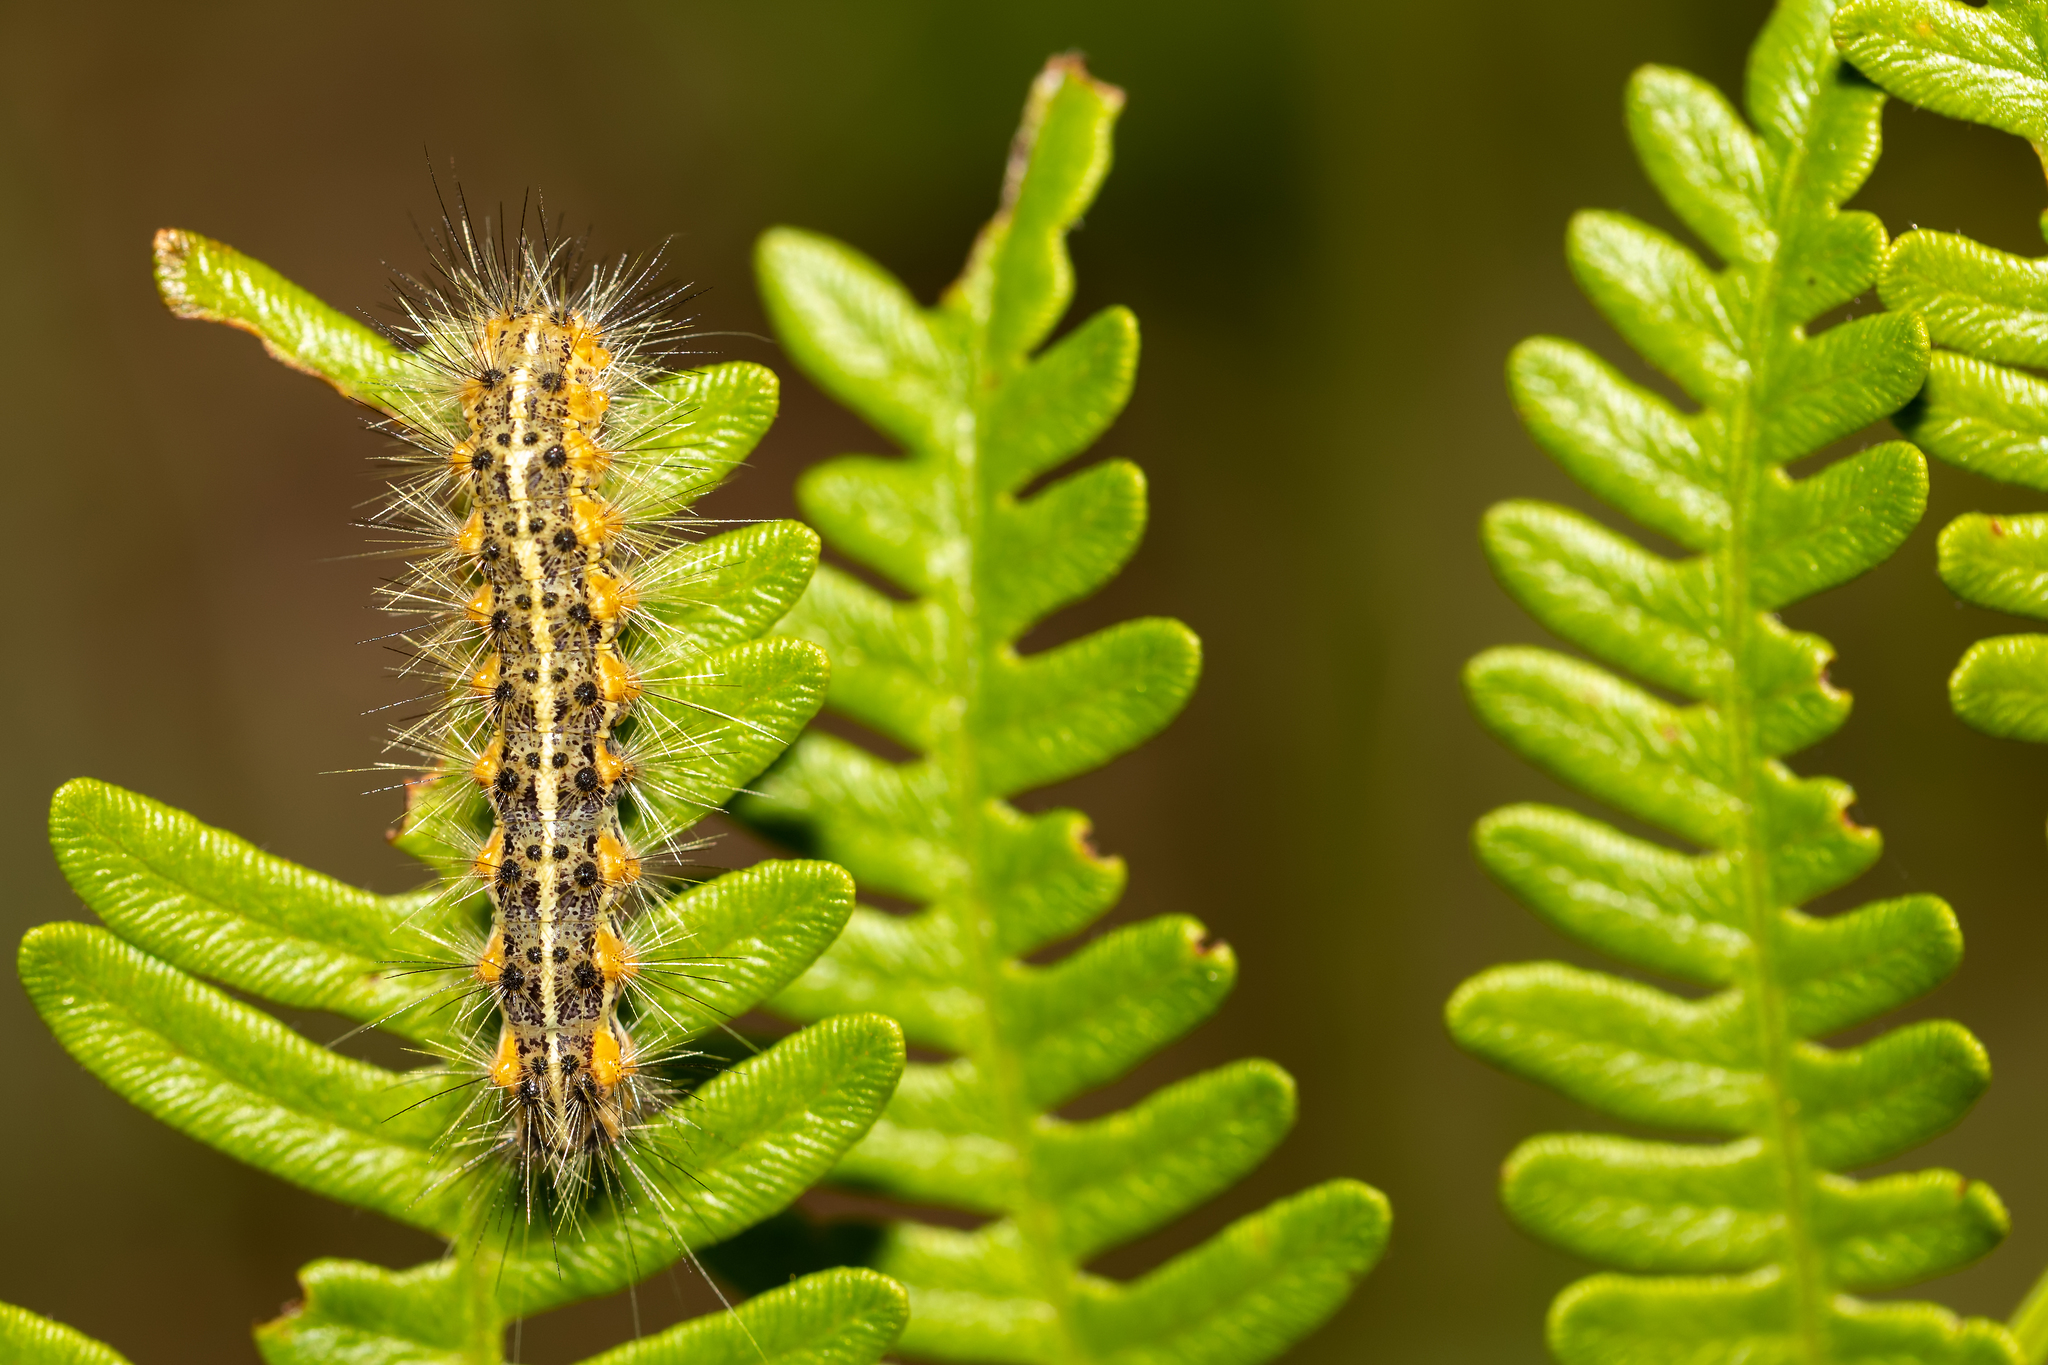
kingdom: Animalia
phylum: Arthropoda
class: Insecta
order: Lepidoptera
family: Erebidae
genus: Estigmene
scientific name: Estigmene acrea
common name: Salt marsh moth
